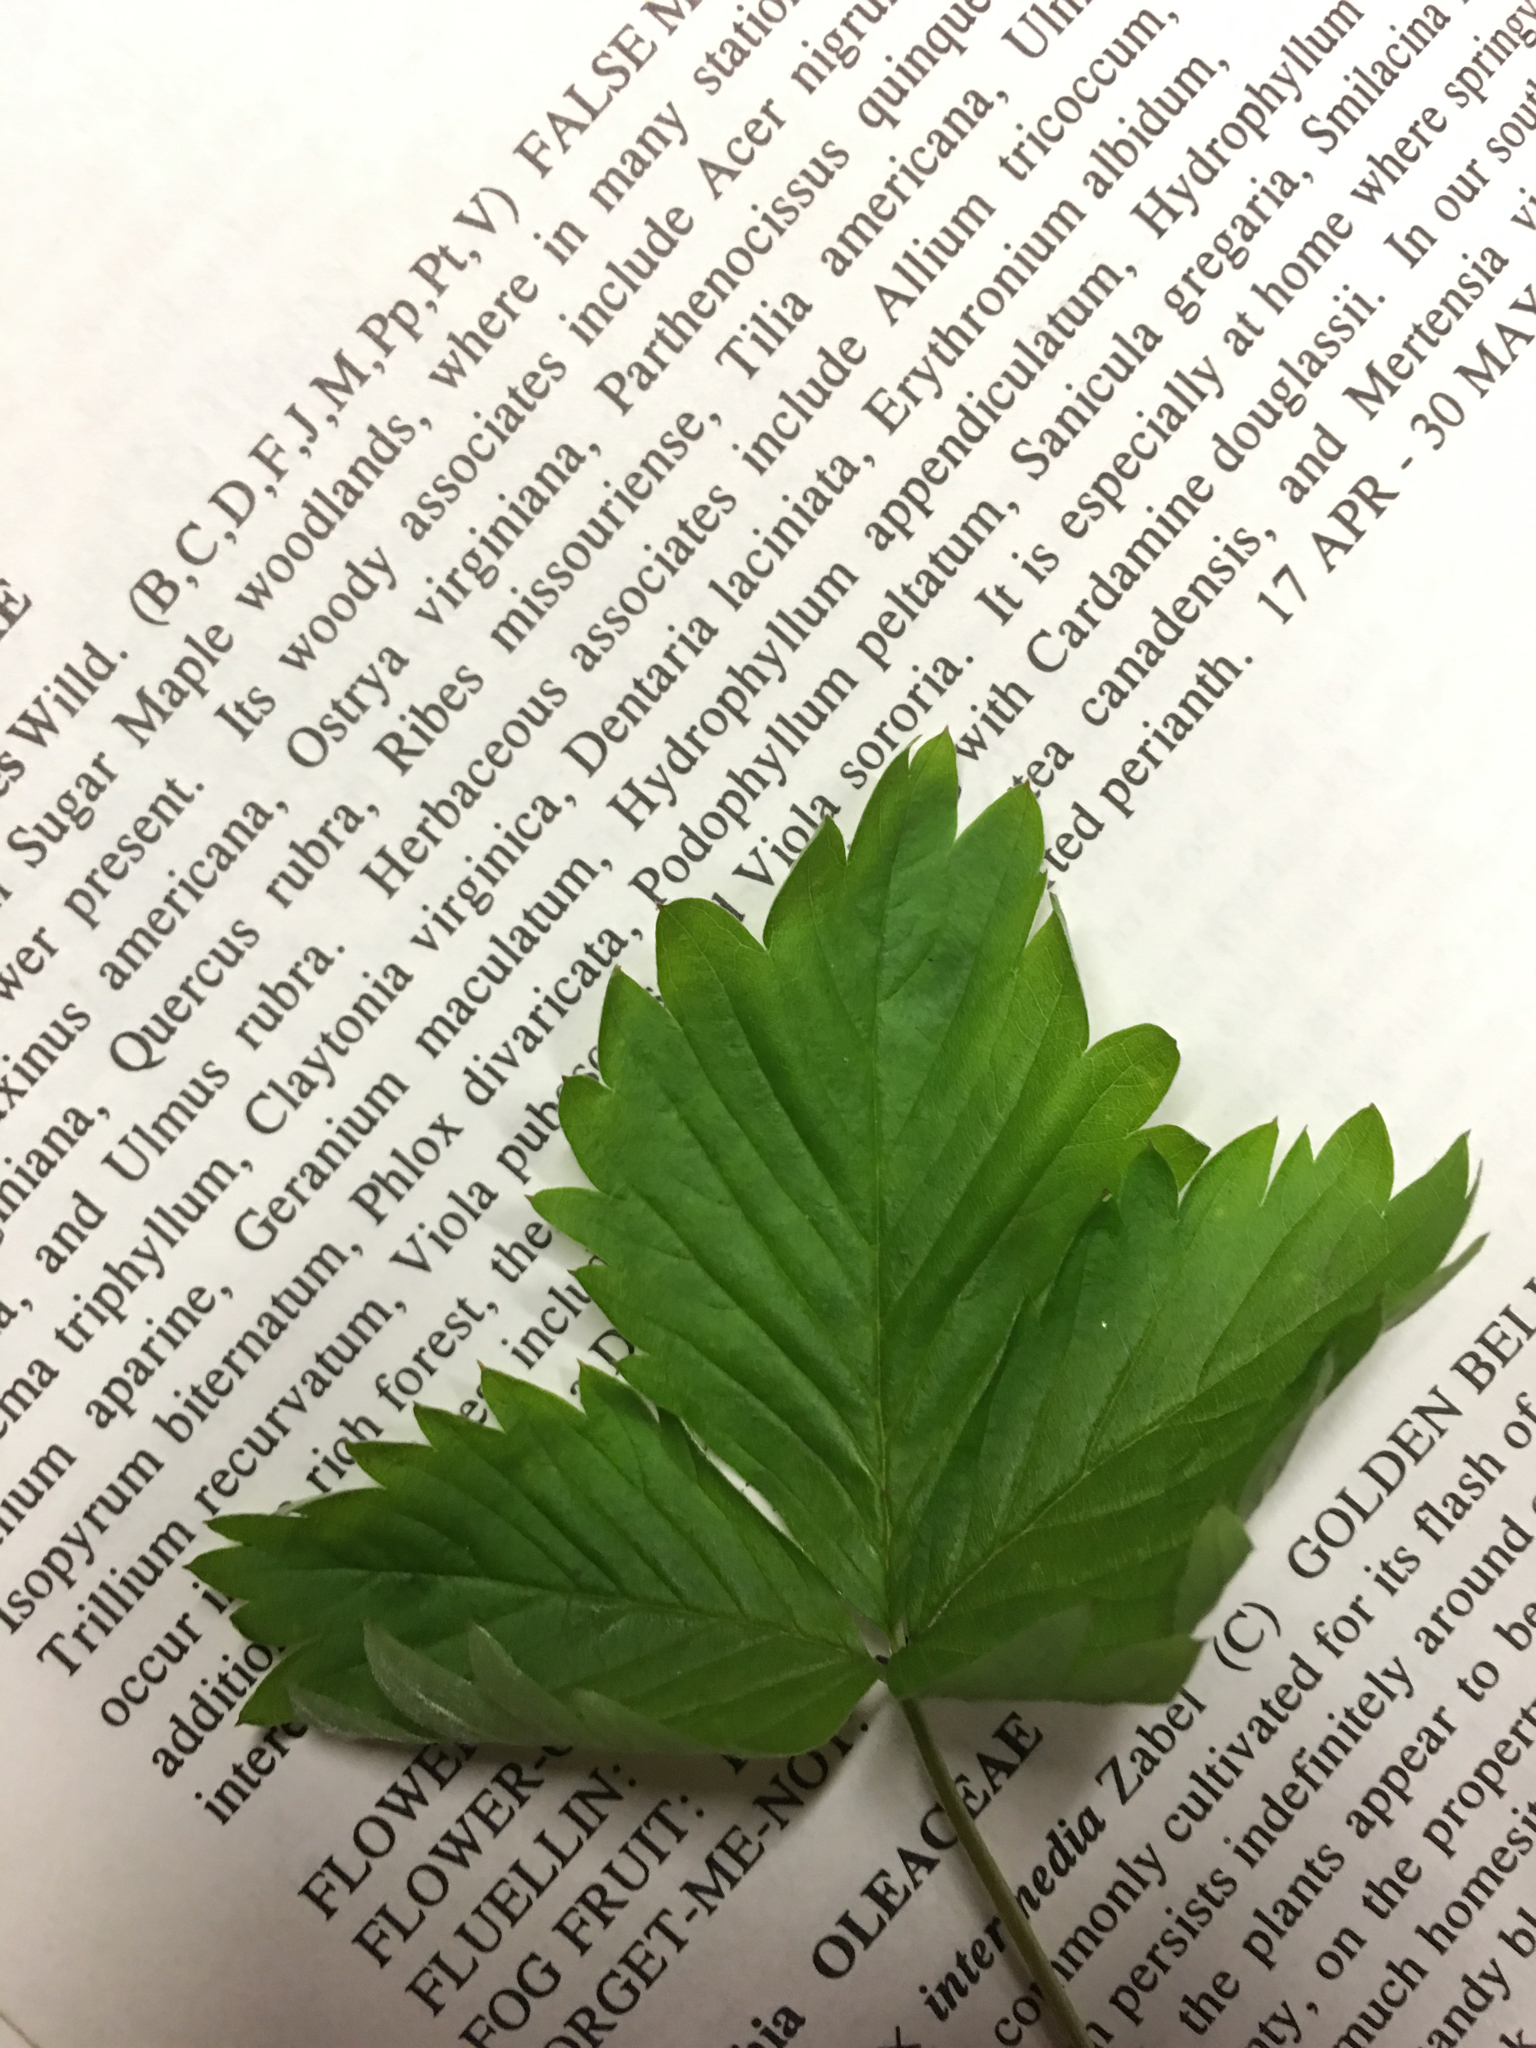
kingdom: Plantae
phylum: Tracheophyta
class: Magnoliopsida
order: Rosales
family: Rosaceae
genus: Fragaria
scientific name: Fragaria vesca
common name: Wild strawberry
